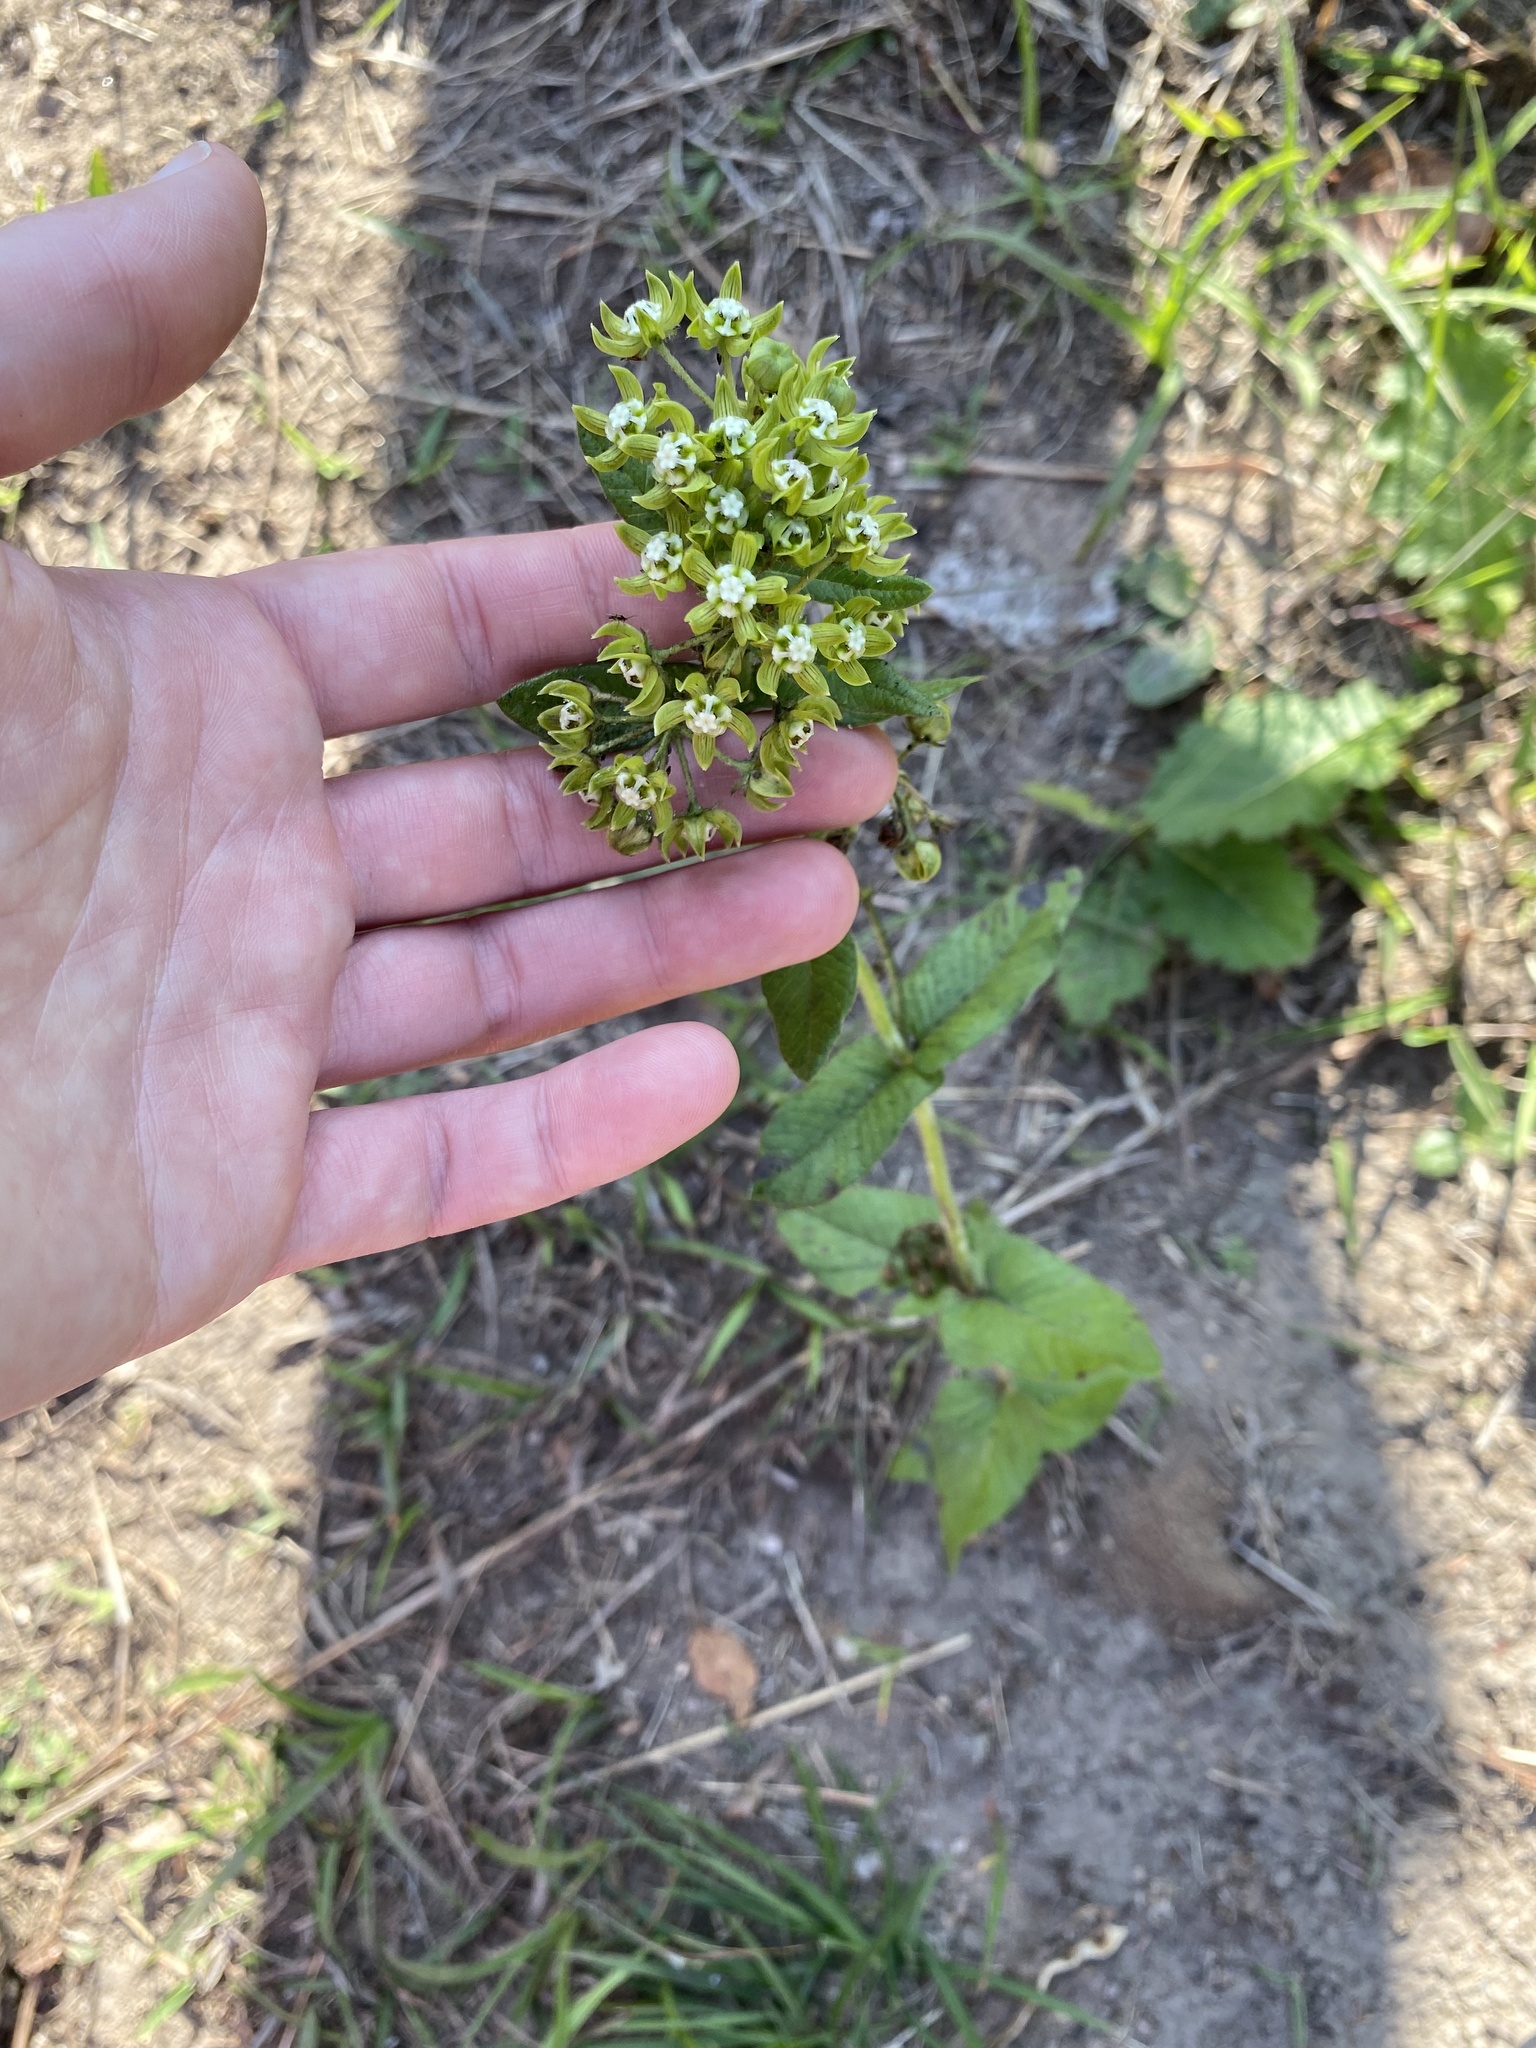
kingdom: Plantae
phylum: Tracheophyta
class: Magnoliopsida
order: Gentianales
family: Apocynaceae
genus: Schizoglossum
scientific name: Schizoglossum cordifolium
